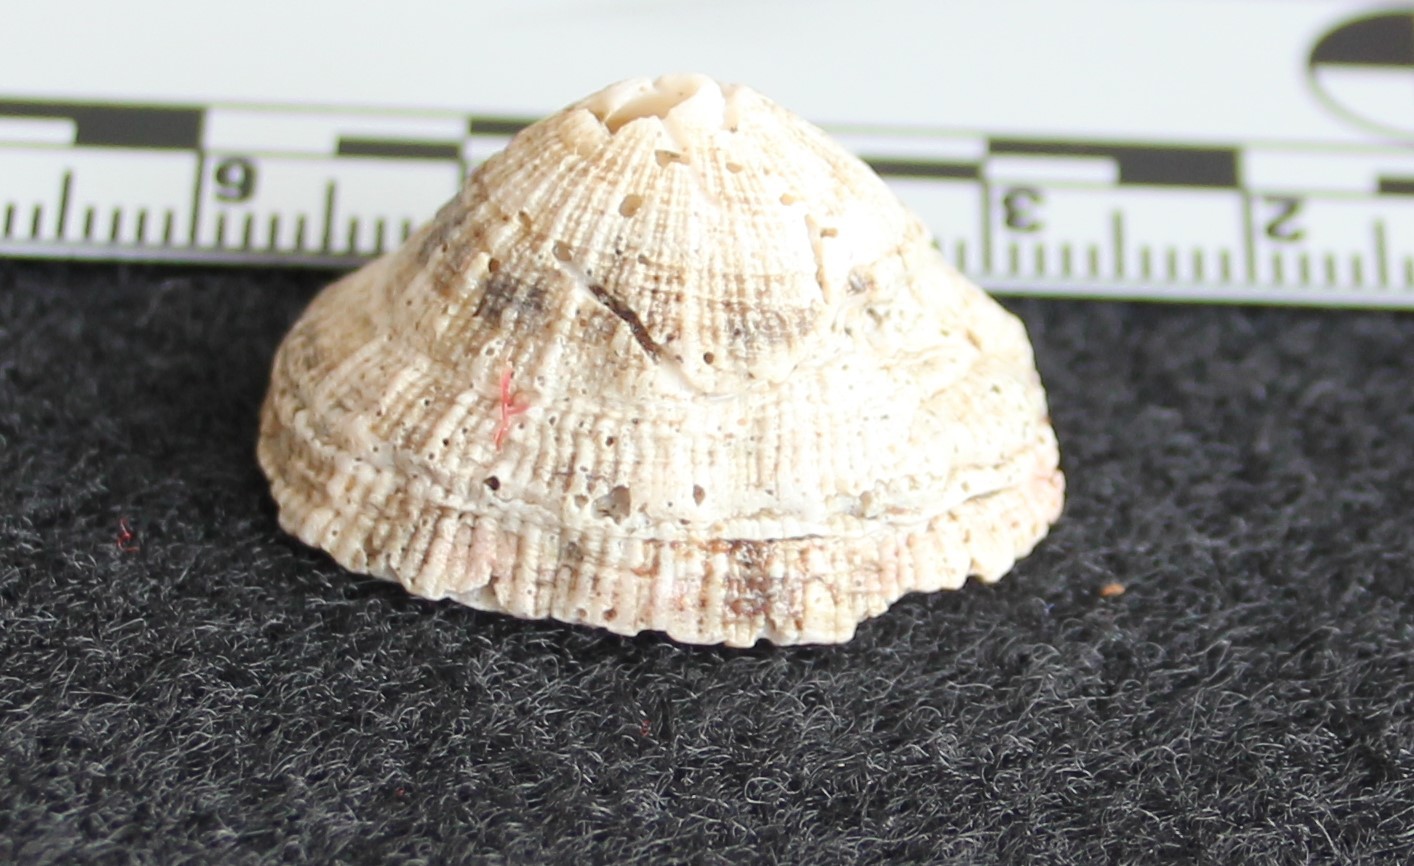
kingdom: Animalia
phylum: Mollusca
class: Gastropoda
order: Lepetellida
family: Fissurellidae
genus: Diodora
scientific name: Diodora aspera
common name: Rough keyhole limpet
